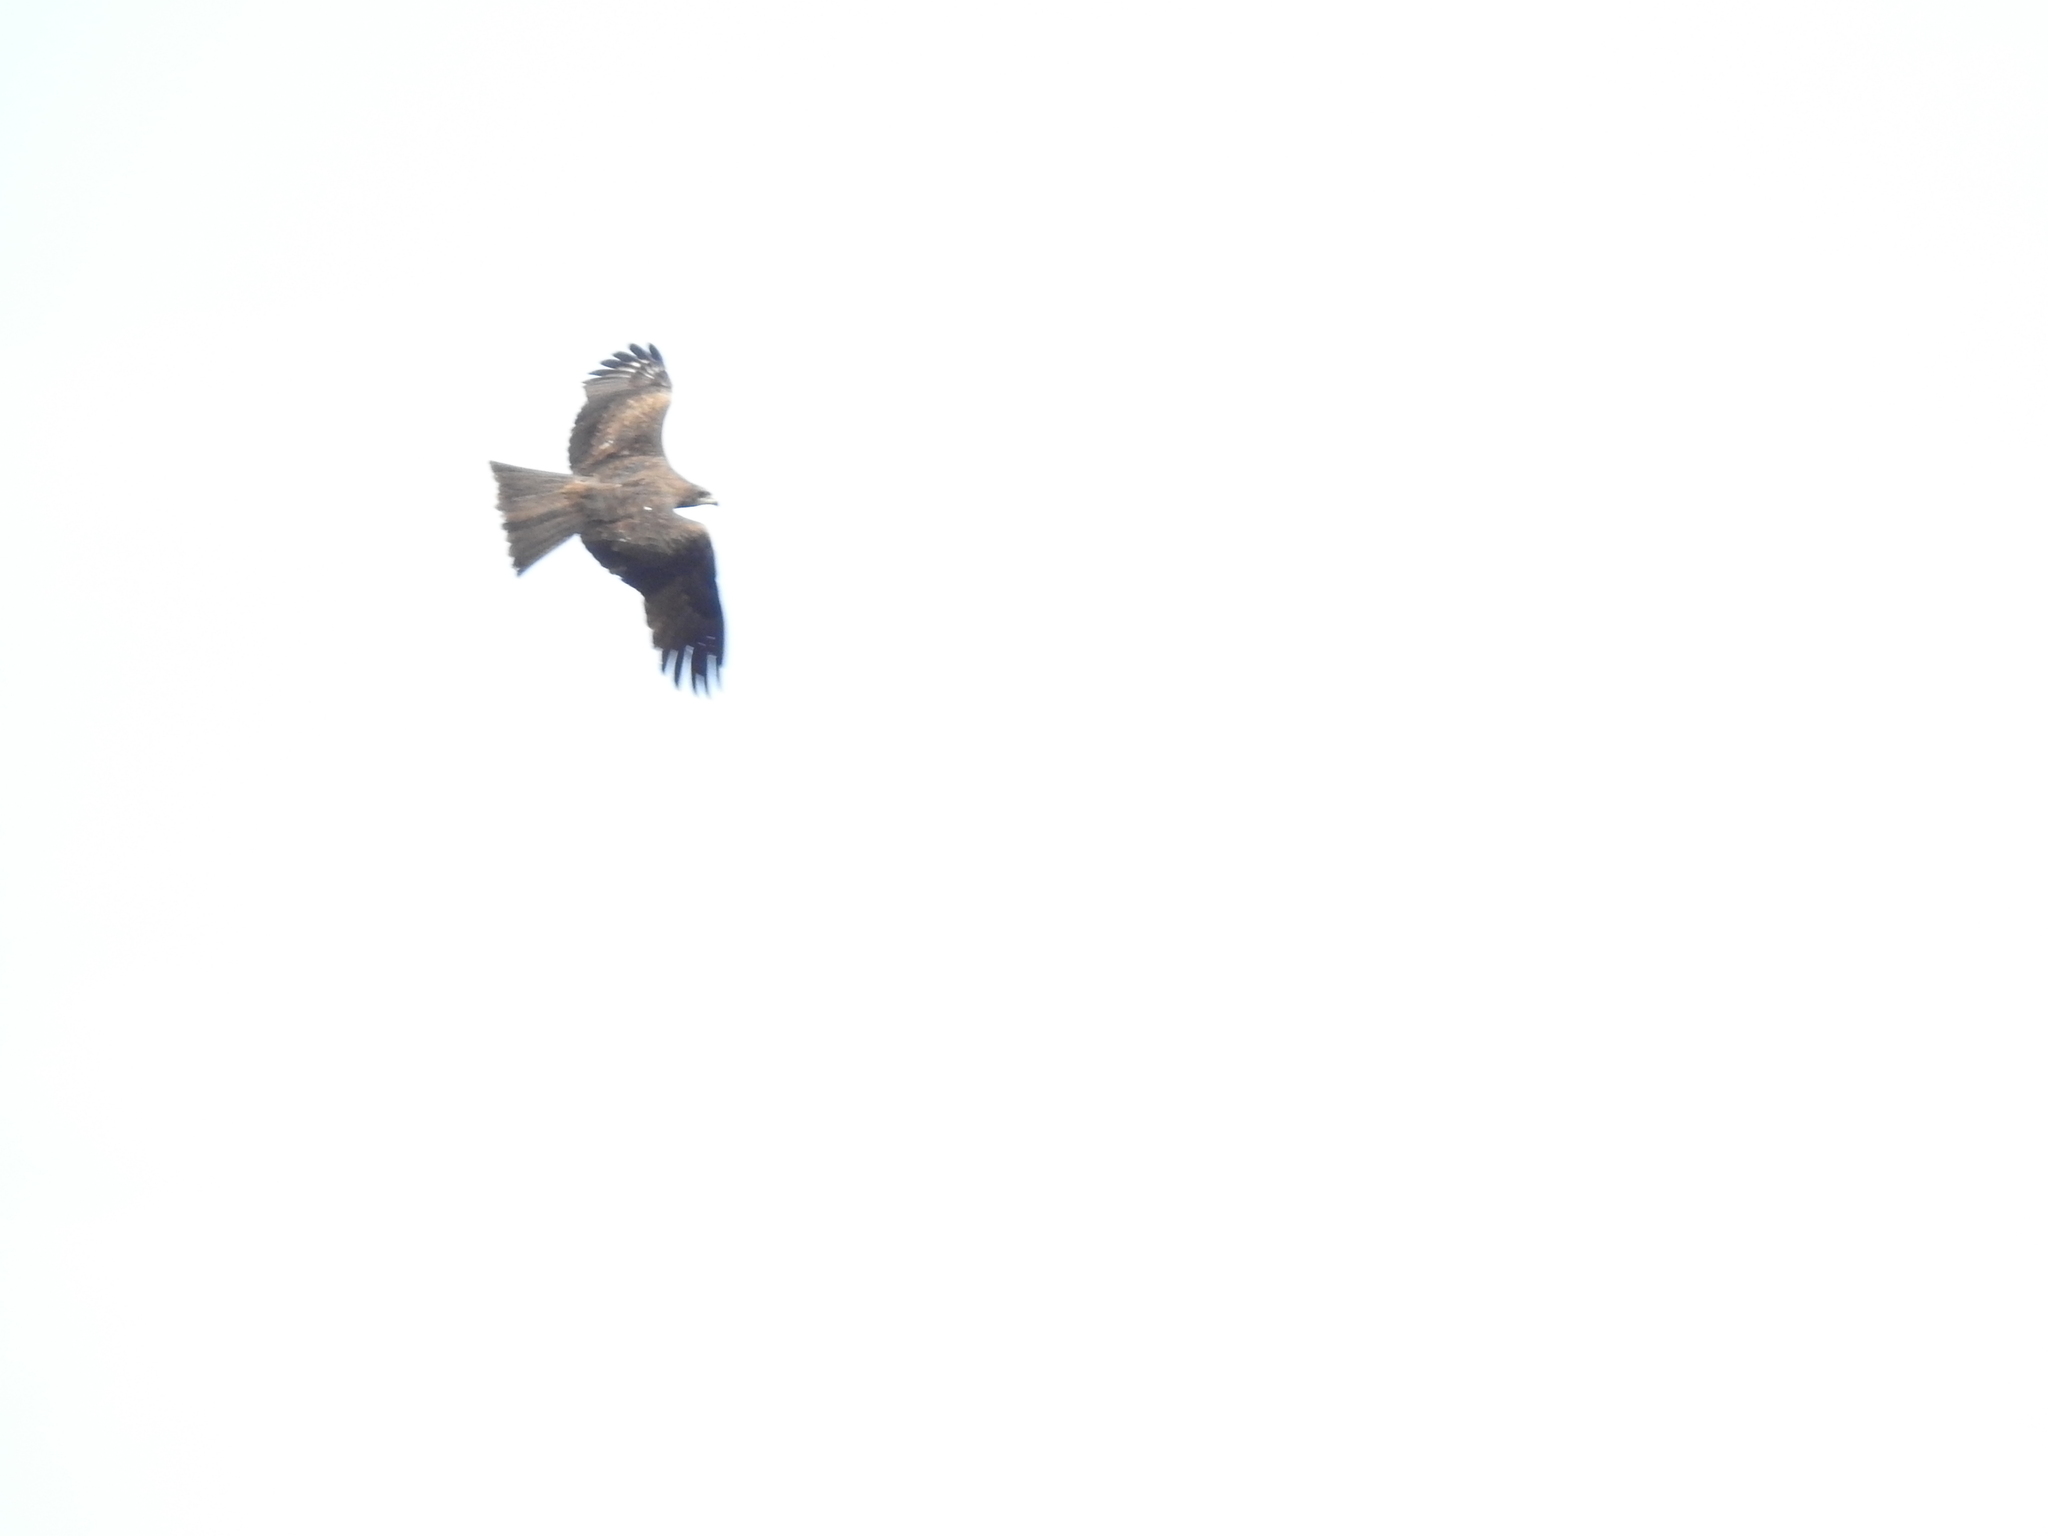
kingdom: Animalia
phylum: Chordata
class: Aves
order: Accipitriformes
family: Accipitridae
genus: Milvus
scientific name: Milvus migrans
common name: Black kite
